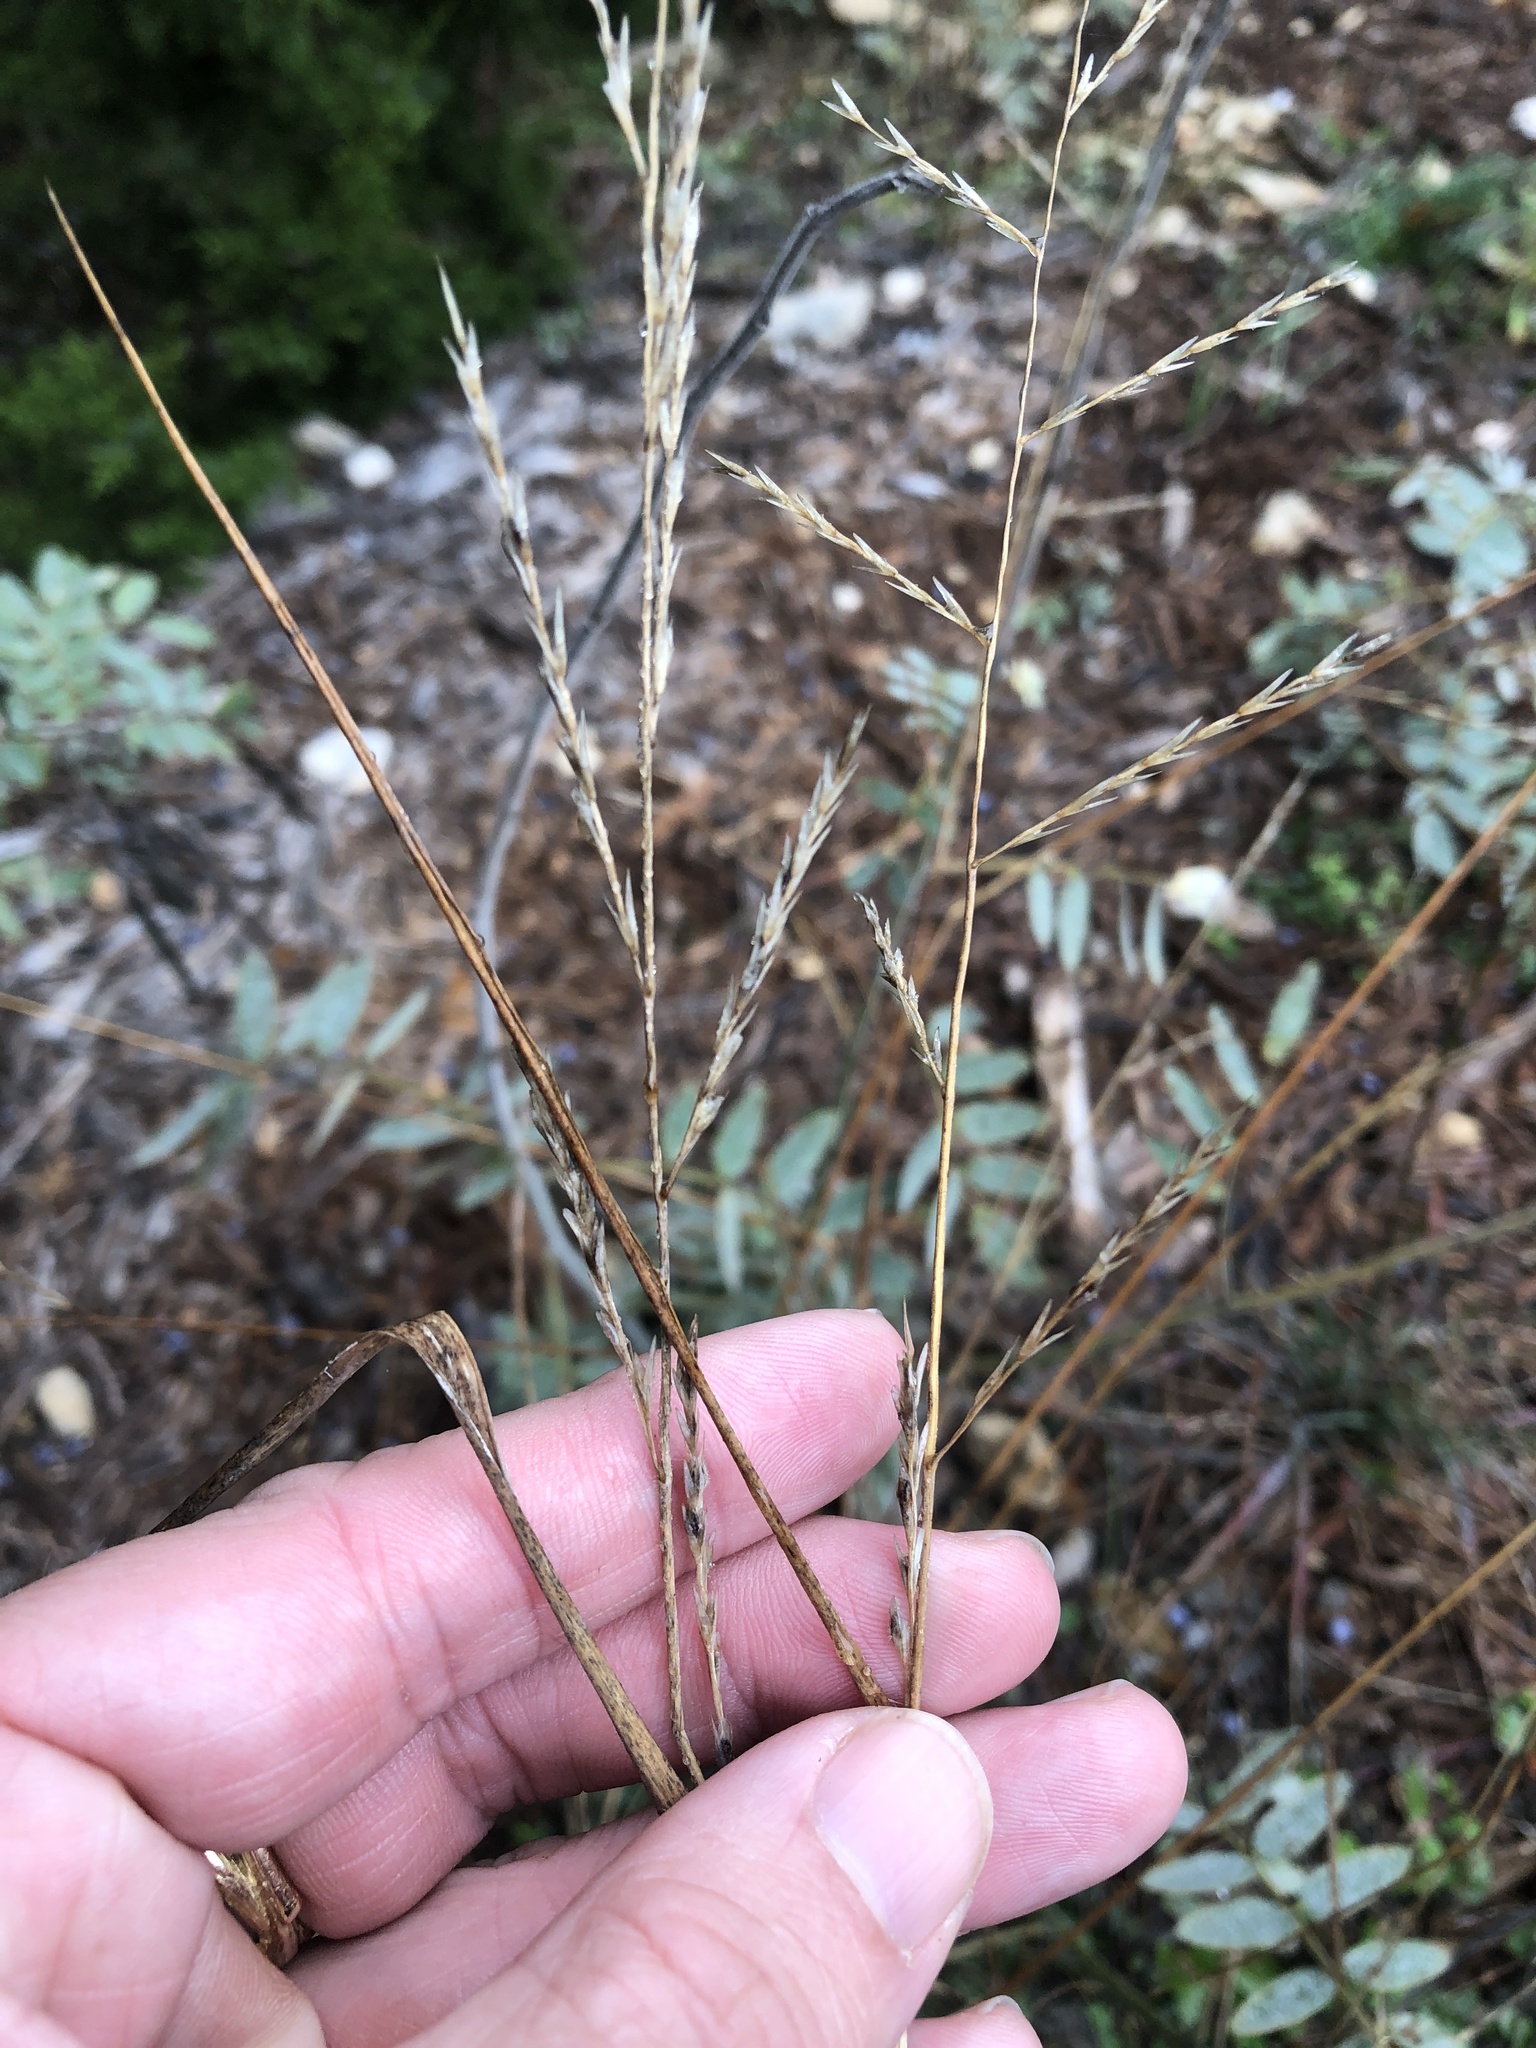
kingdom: Plantae
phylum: Tracheophyta
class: Liliopsida
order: Poales
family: Poaceae
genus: Tridentopsis
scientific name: Tridentopsis buckleyana
